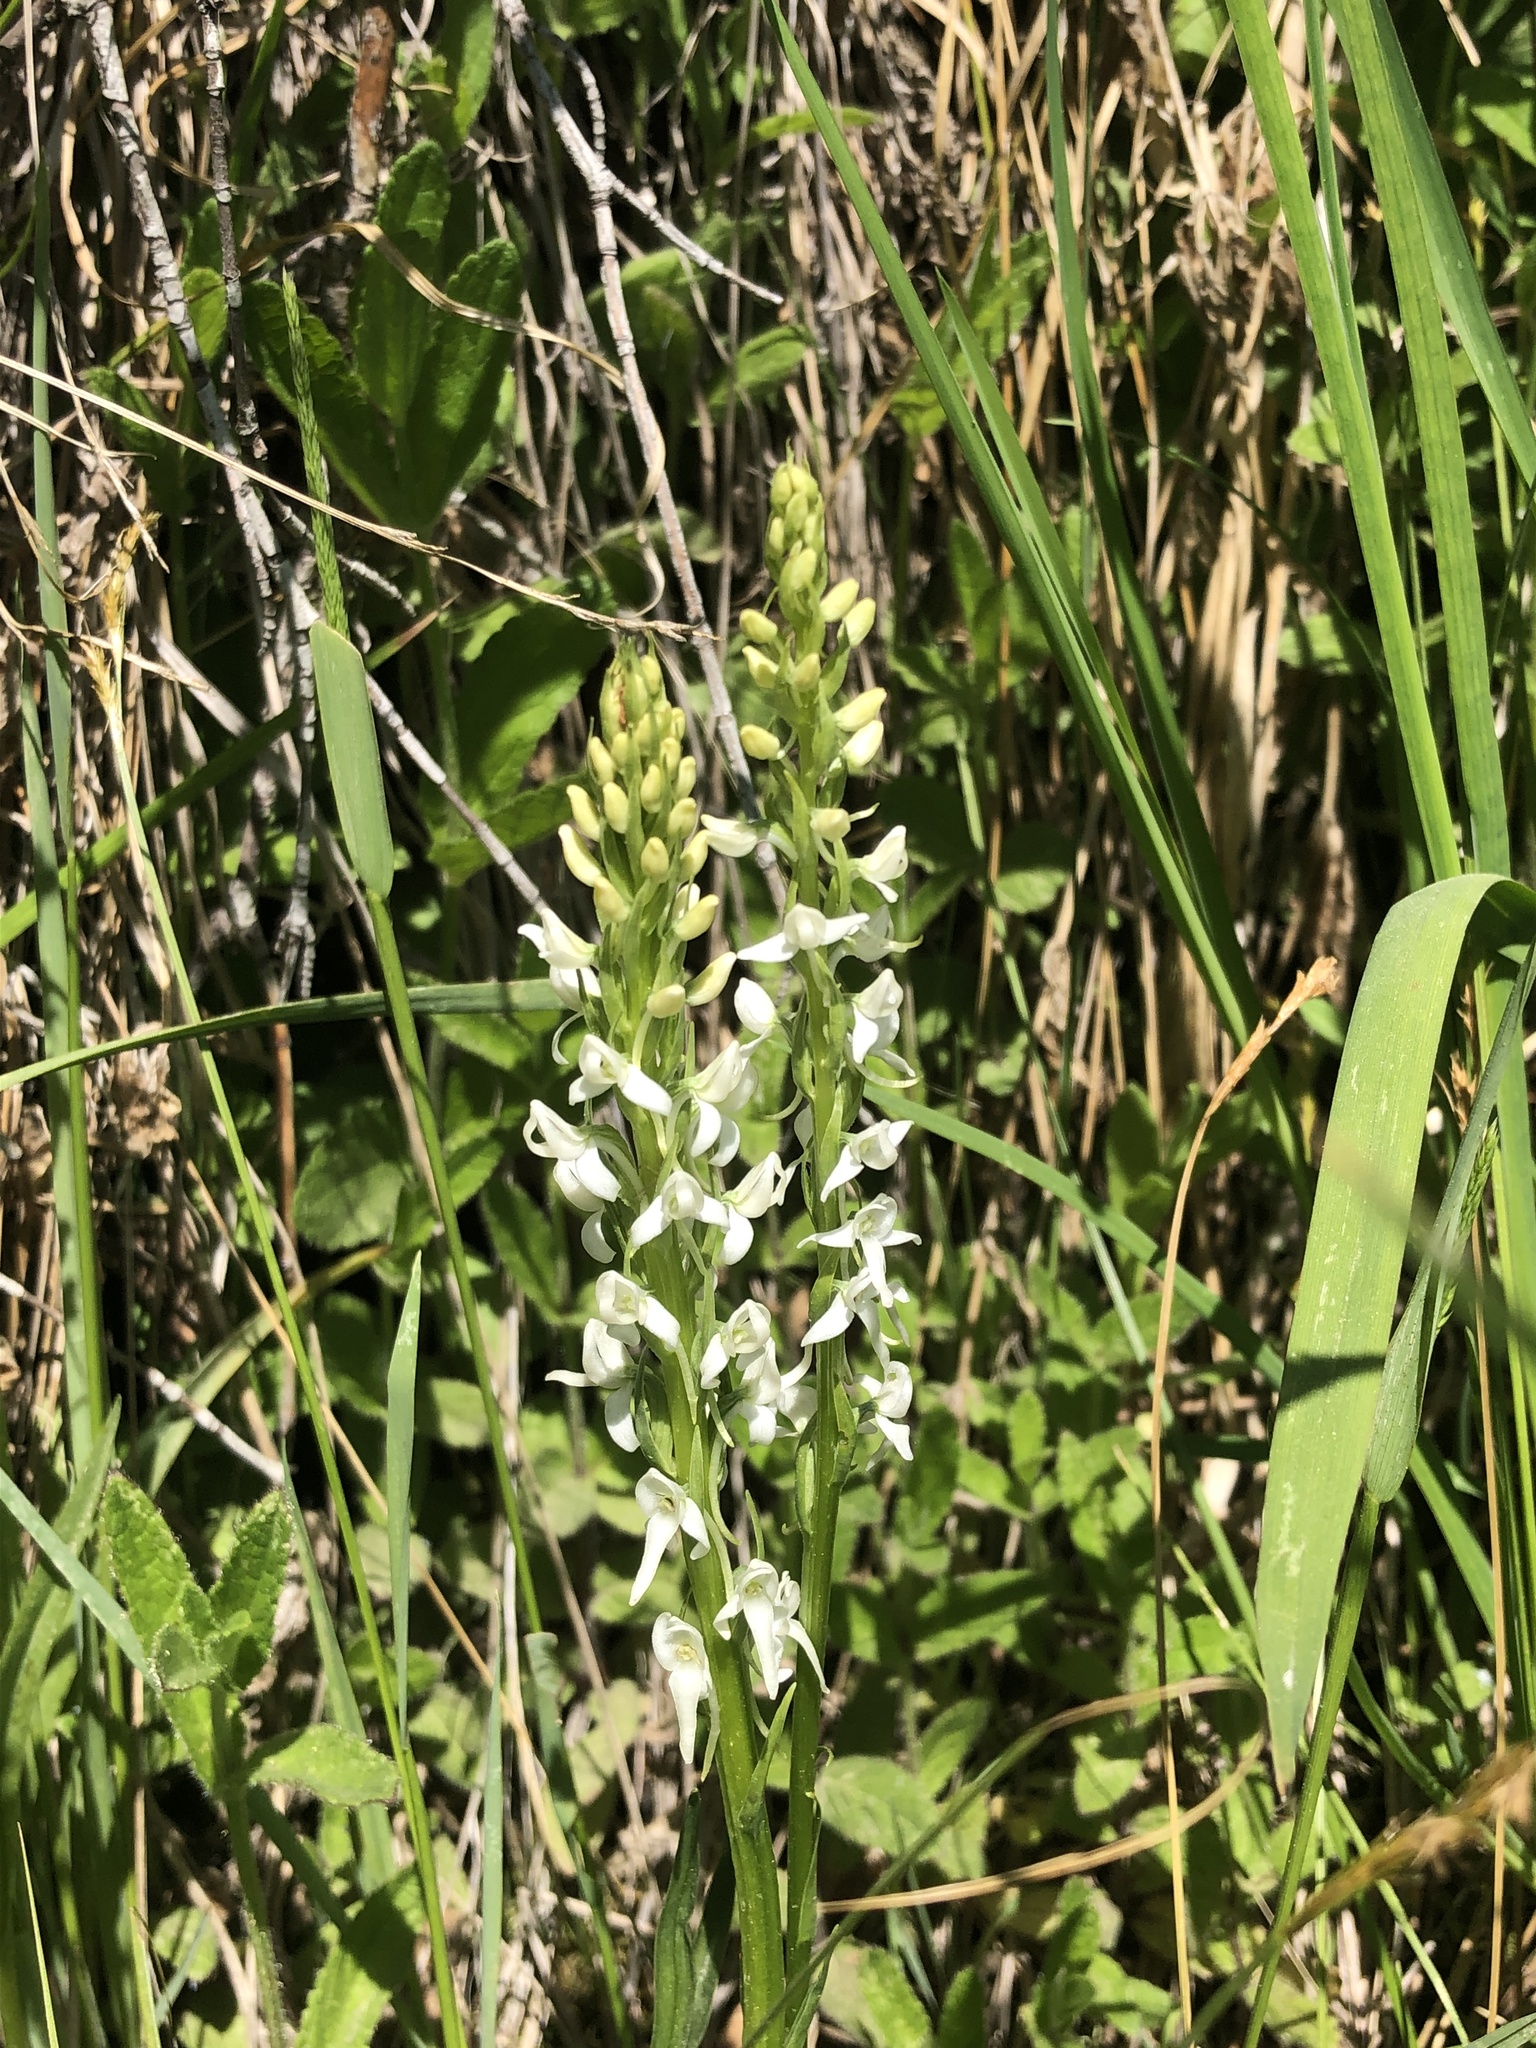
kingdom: Plantae
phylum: Tracheophyta
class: Liliopsida
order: Asparagales
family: Orchidaceae
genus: Platanthera
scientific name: Platanthera dilatata
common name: Bog candles
